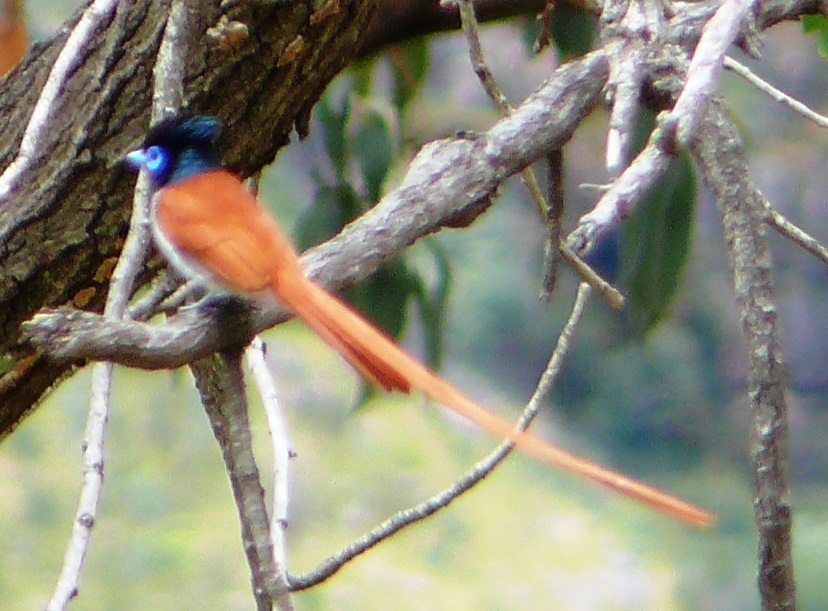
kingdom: Animalia
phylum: Chordata
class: Aves
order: Passeriformes
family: Monarchidae
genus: Terpsiphone
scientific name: Terpsiphone viridis
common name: African paradise flycatcher
